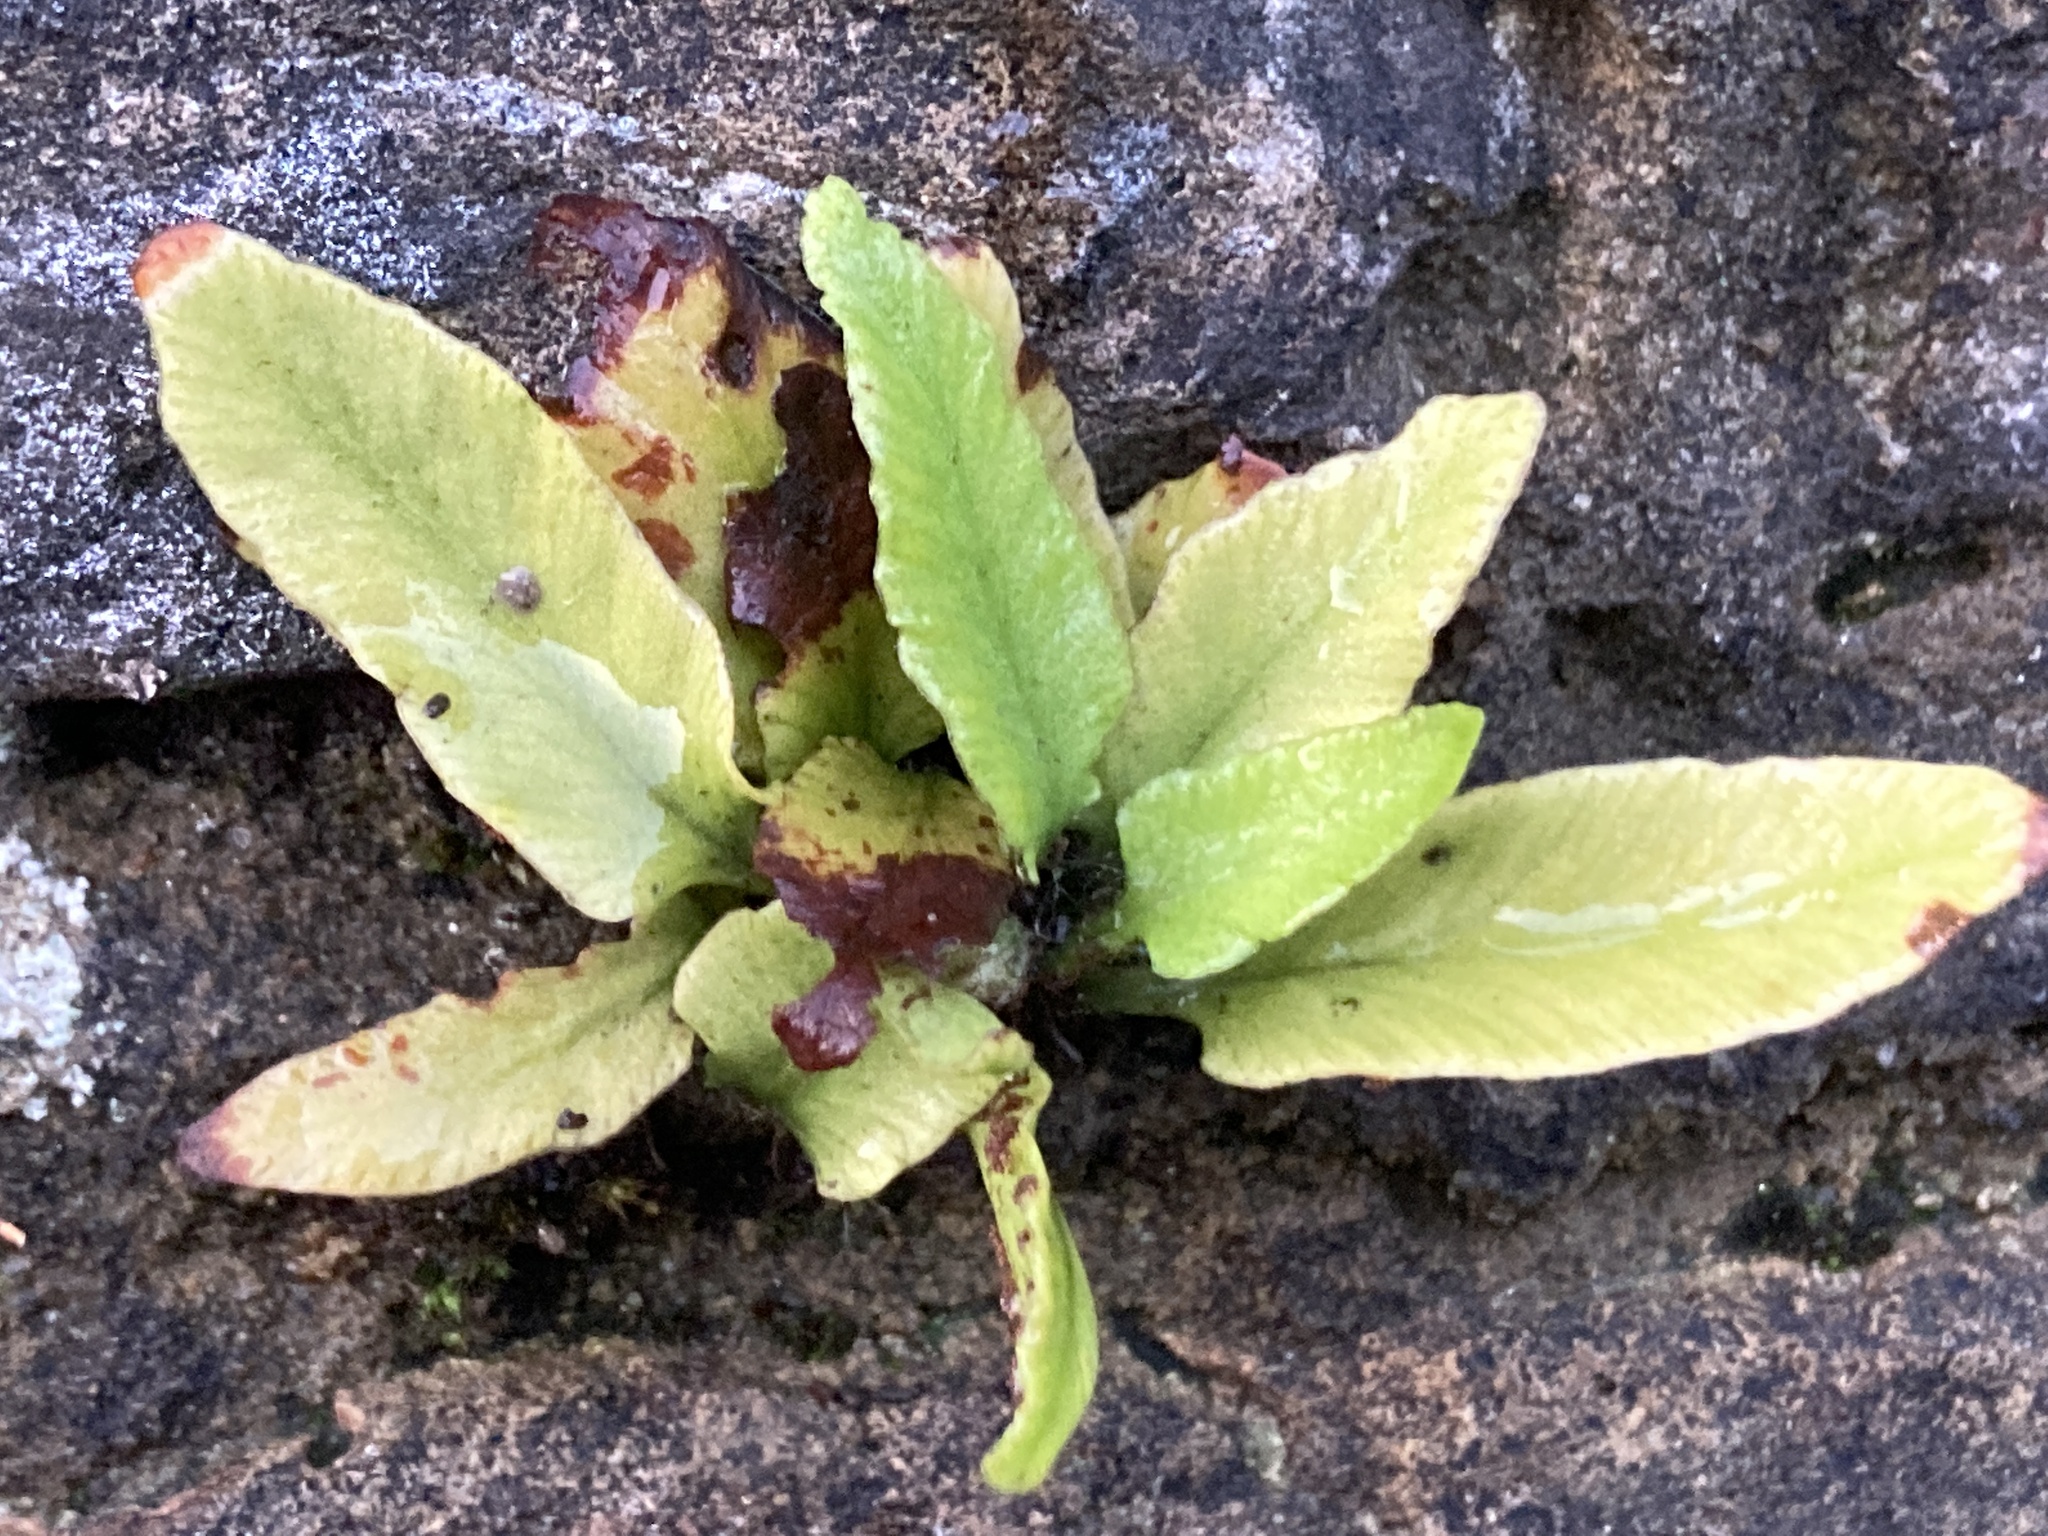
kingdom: Plantae
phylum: Tracheophyta
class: Polypodiopsida
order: Polypodiales
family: Aspleniaceae
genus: Asplenium
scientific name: Asplenium scolopendrium
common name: Hart's-tongue fern
